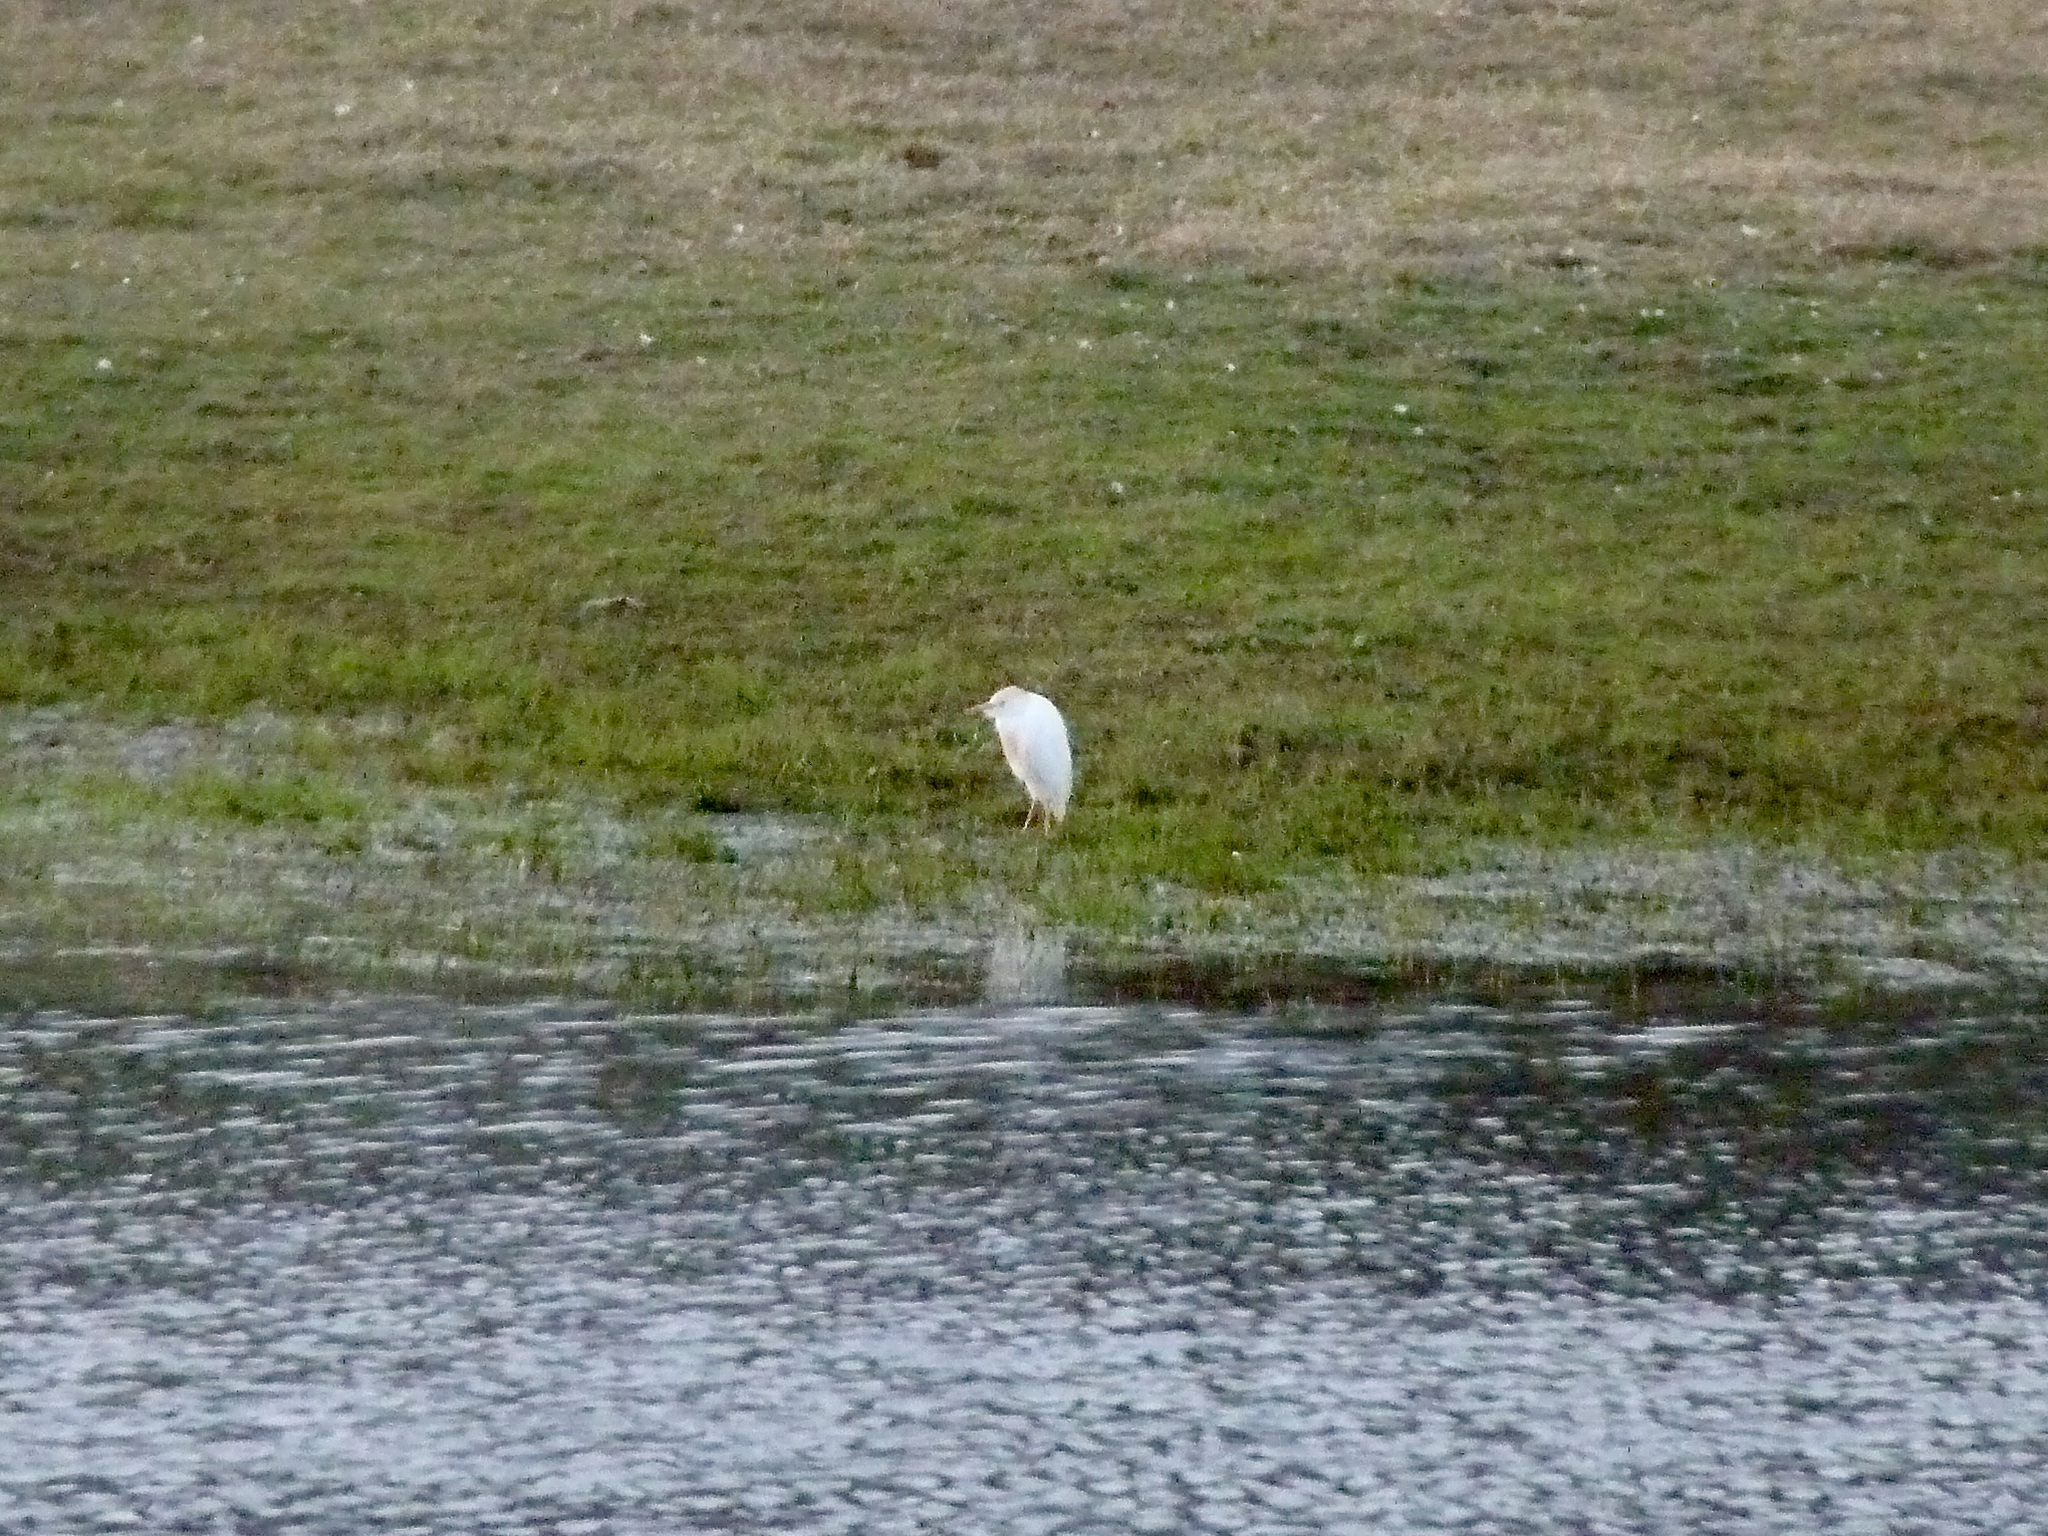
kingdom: Animalia
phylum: Chordata
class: Aves
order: Pelecaniformes
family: Ardeidae
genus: Bubulcus
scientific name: Bubulcus ibis
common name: Cattle egret
